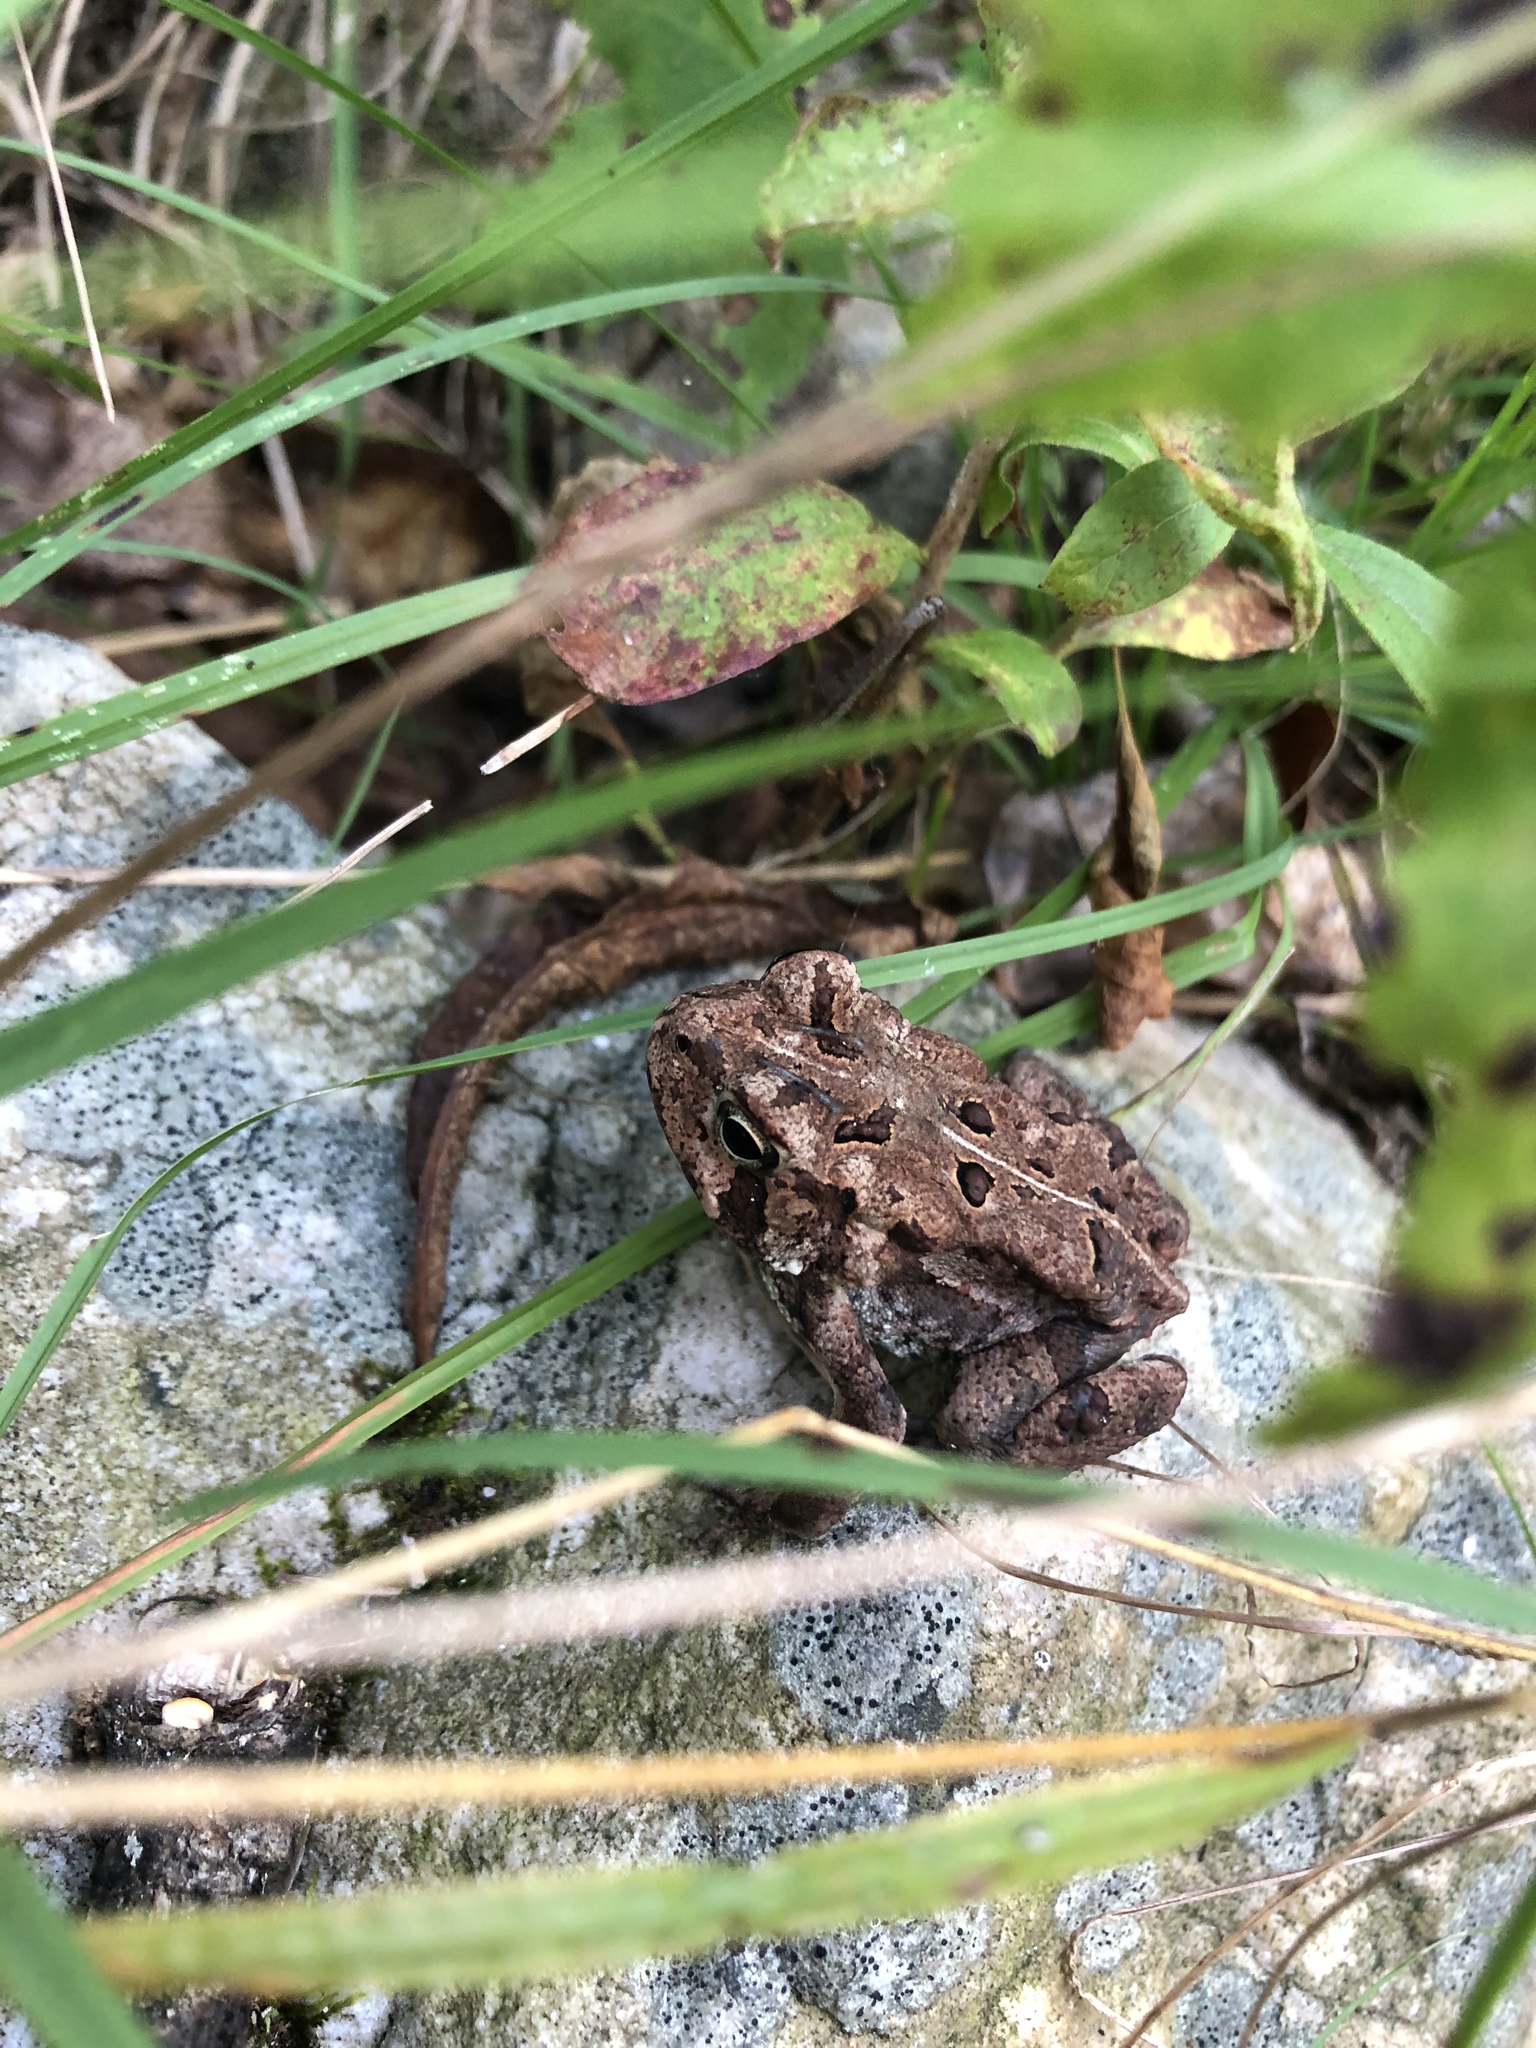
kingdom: Animalia
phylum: Chordata
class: Amphibia
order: Anura
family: Bufonidae
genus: Anaxyrus
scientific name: Anaxyrus americanus
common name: American toad
